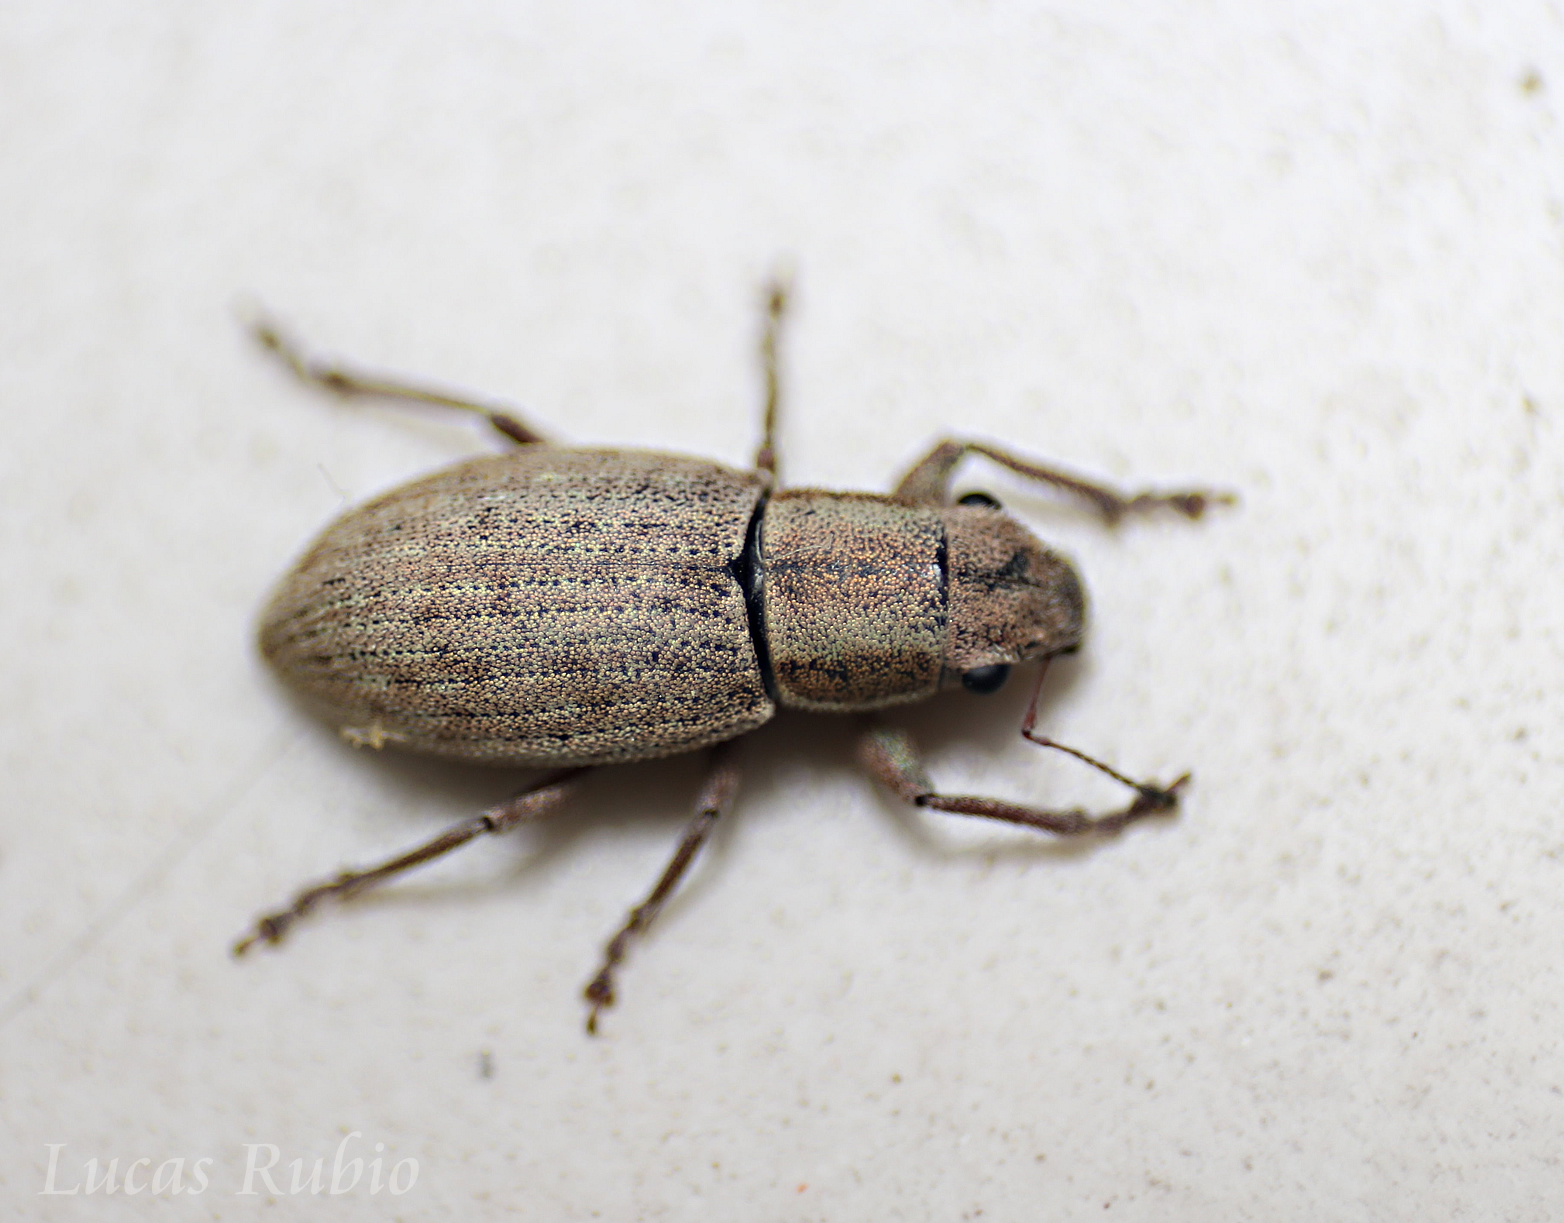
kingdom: Animalia
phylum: Arthropoda
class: Insecta
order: Coleoptera
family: Curculionidae
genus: Aramigus
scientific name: Aramigus tessellatus
